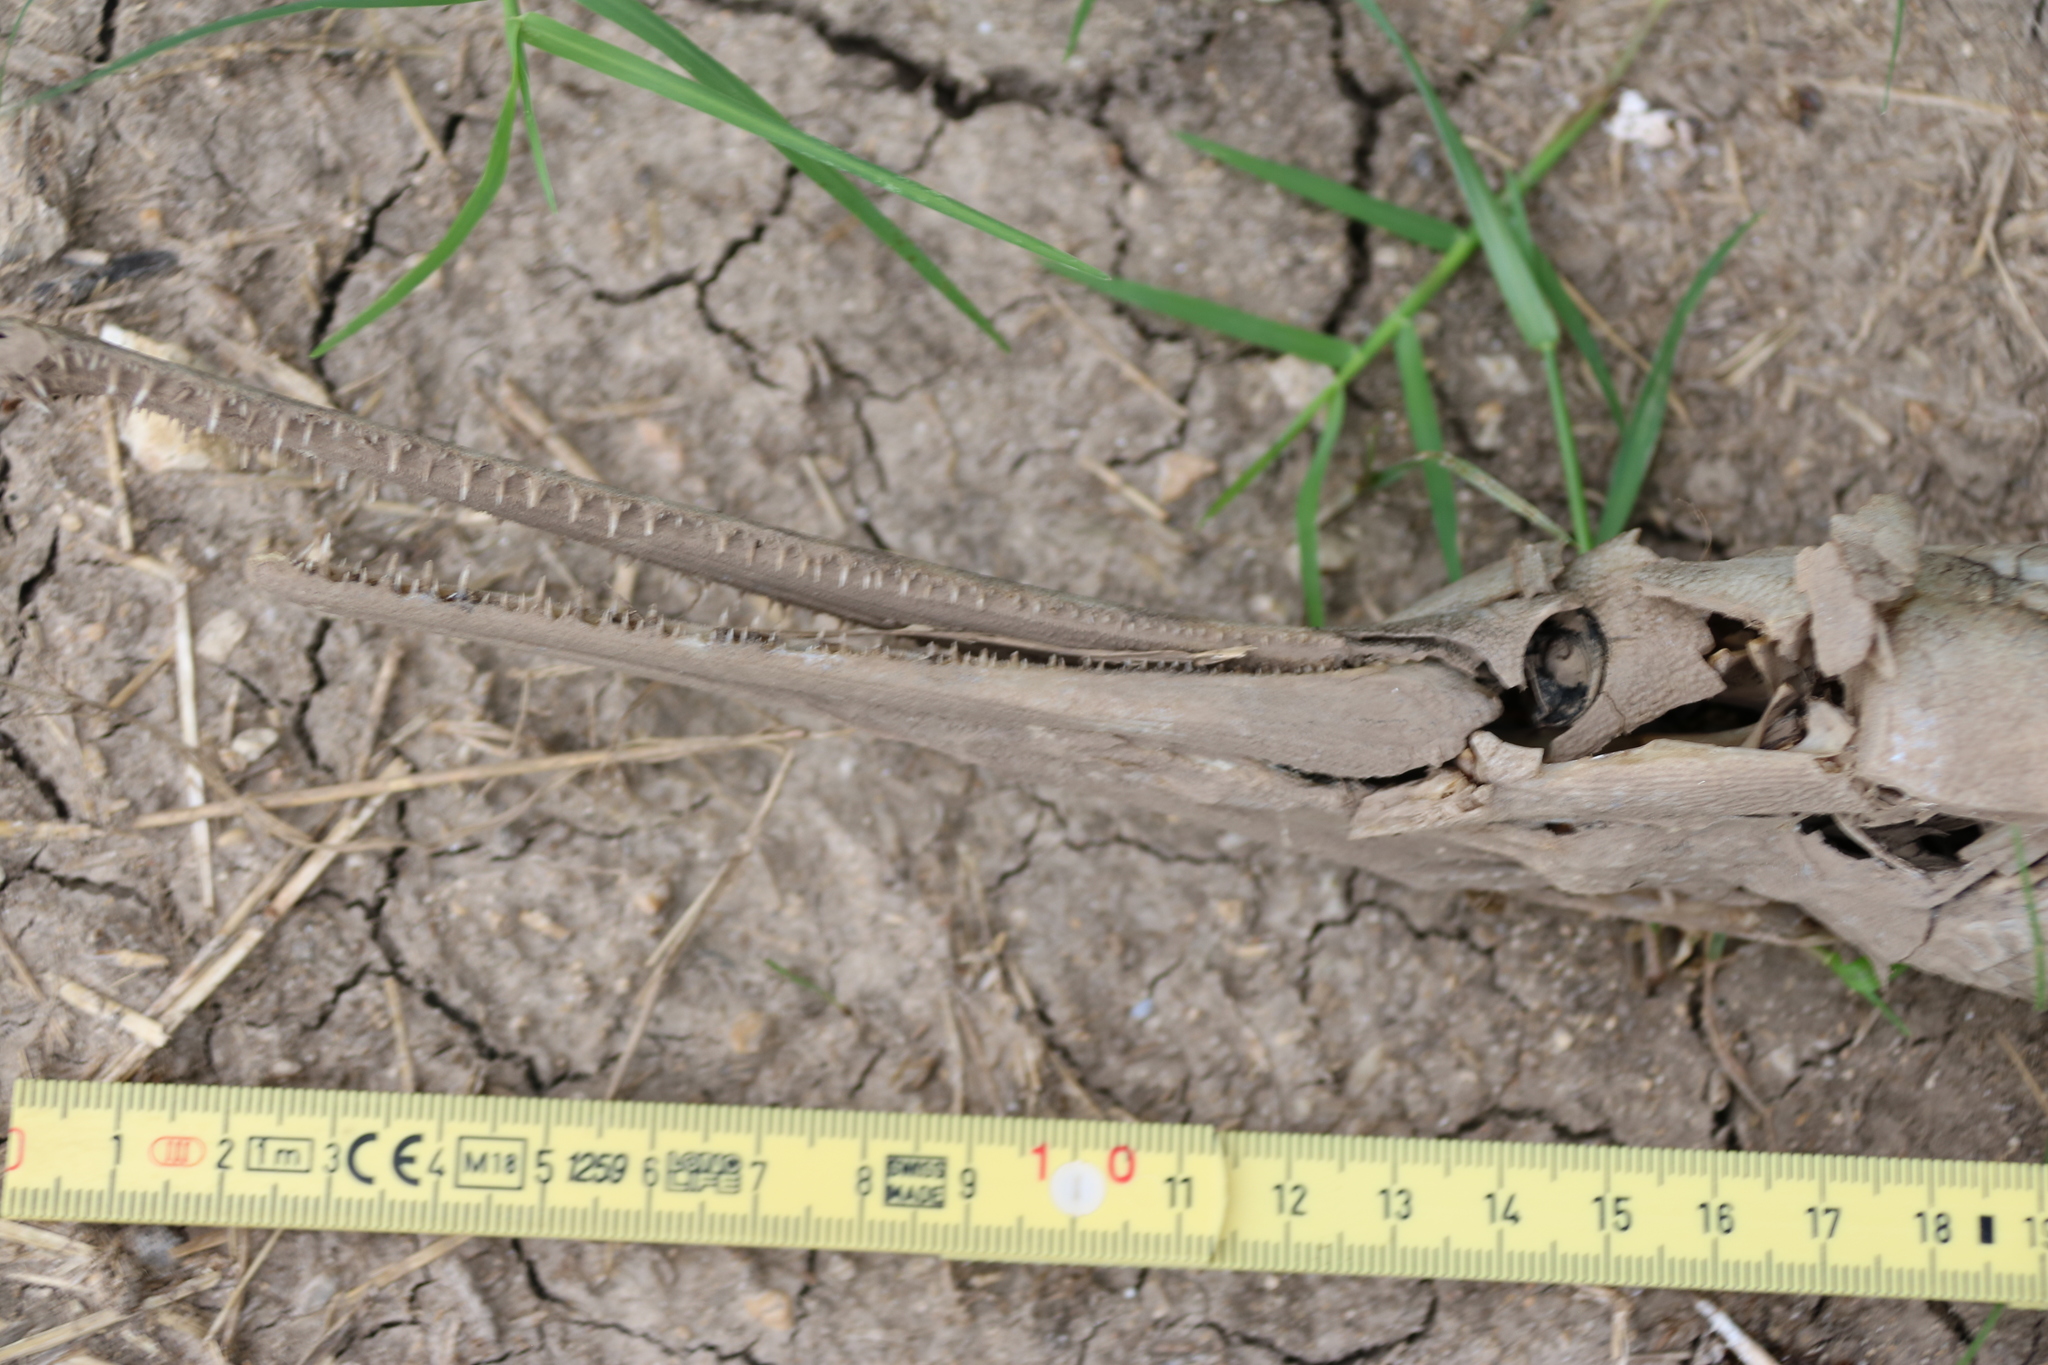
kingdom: Animalia
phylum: Chordata
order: Lepisosteiformes
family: Lepisosteidae
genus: Lepisosteus
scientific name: Lepisosteus osseus
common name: Longnose gar
